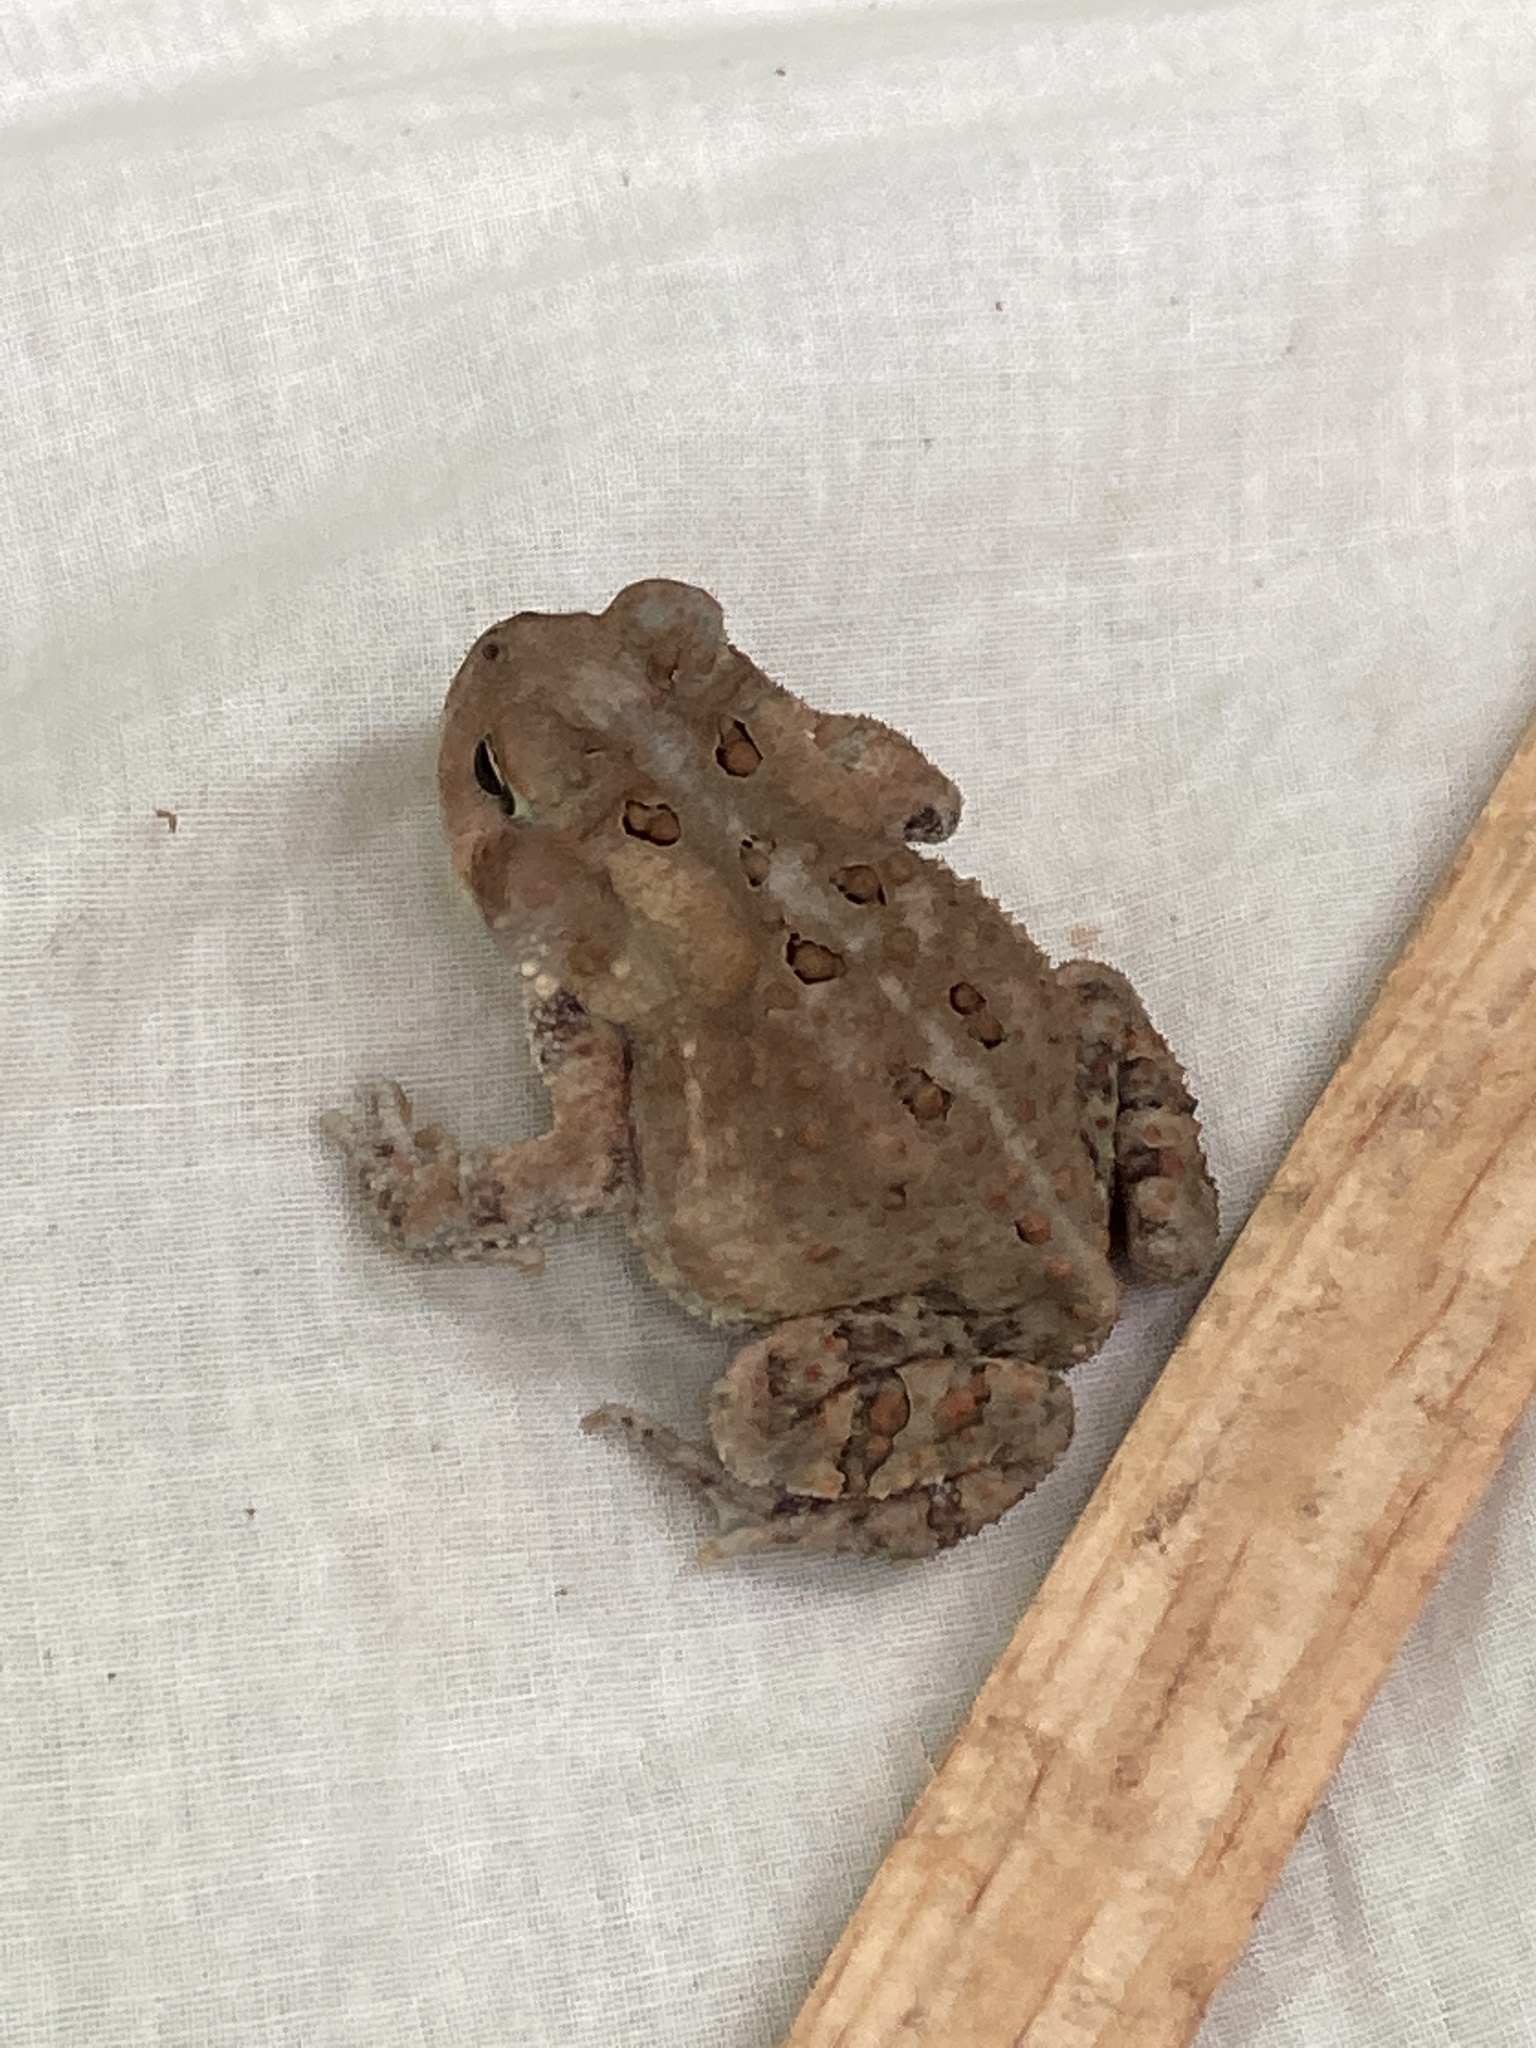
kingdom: Animalia
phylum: Chordata
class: Amphibia
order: Anura
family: Bufonidae
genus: Anaxyrus
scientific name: Anaxyrus americanus
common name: American toad
